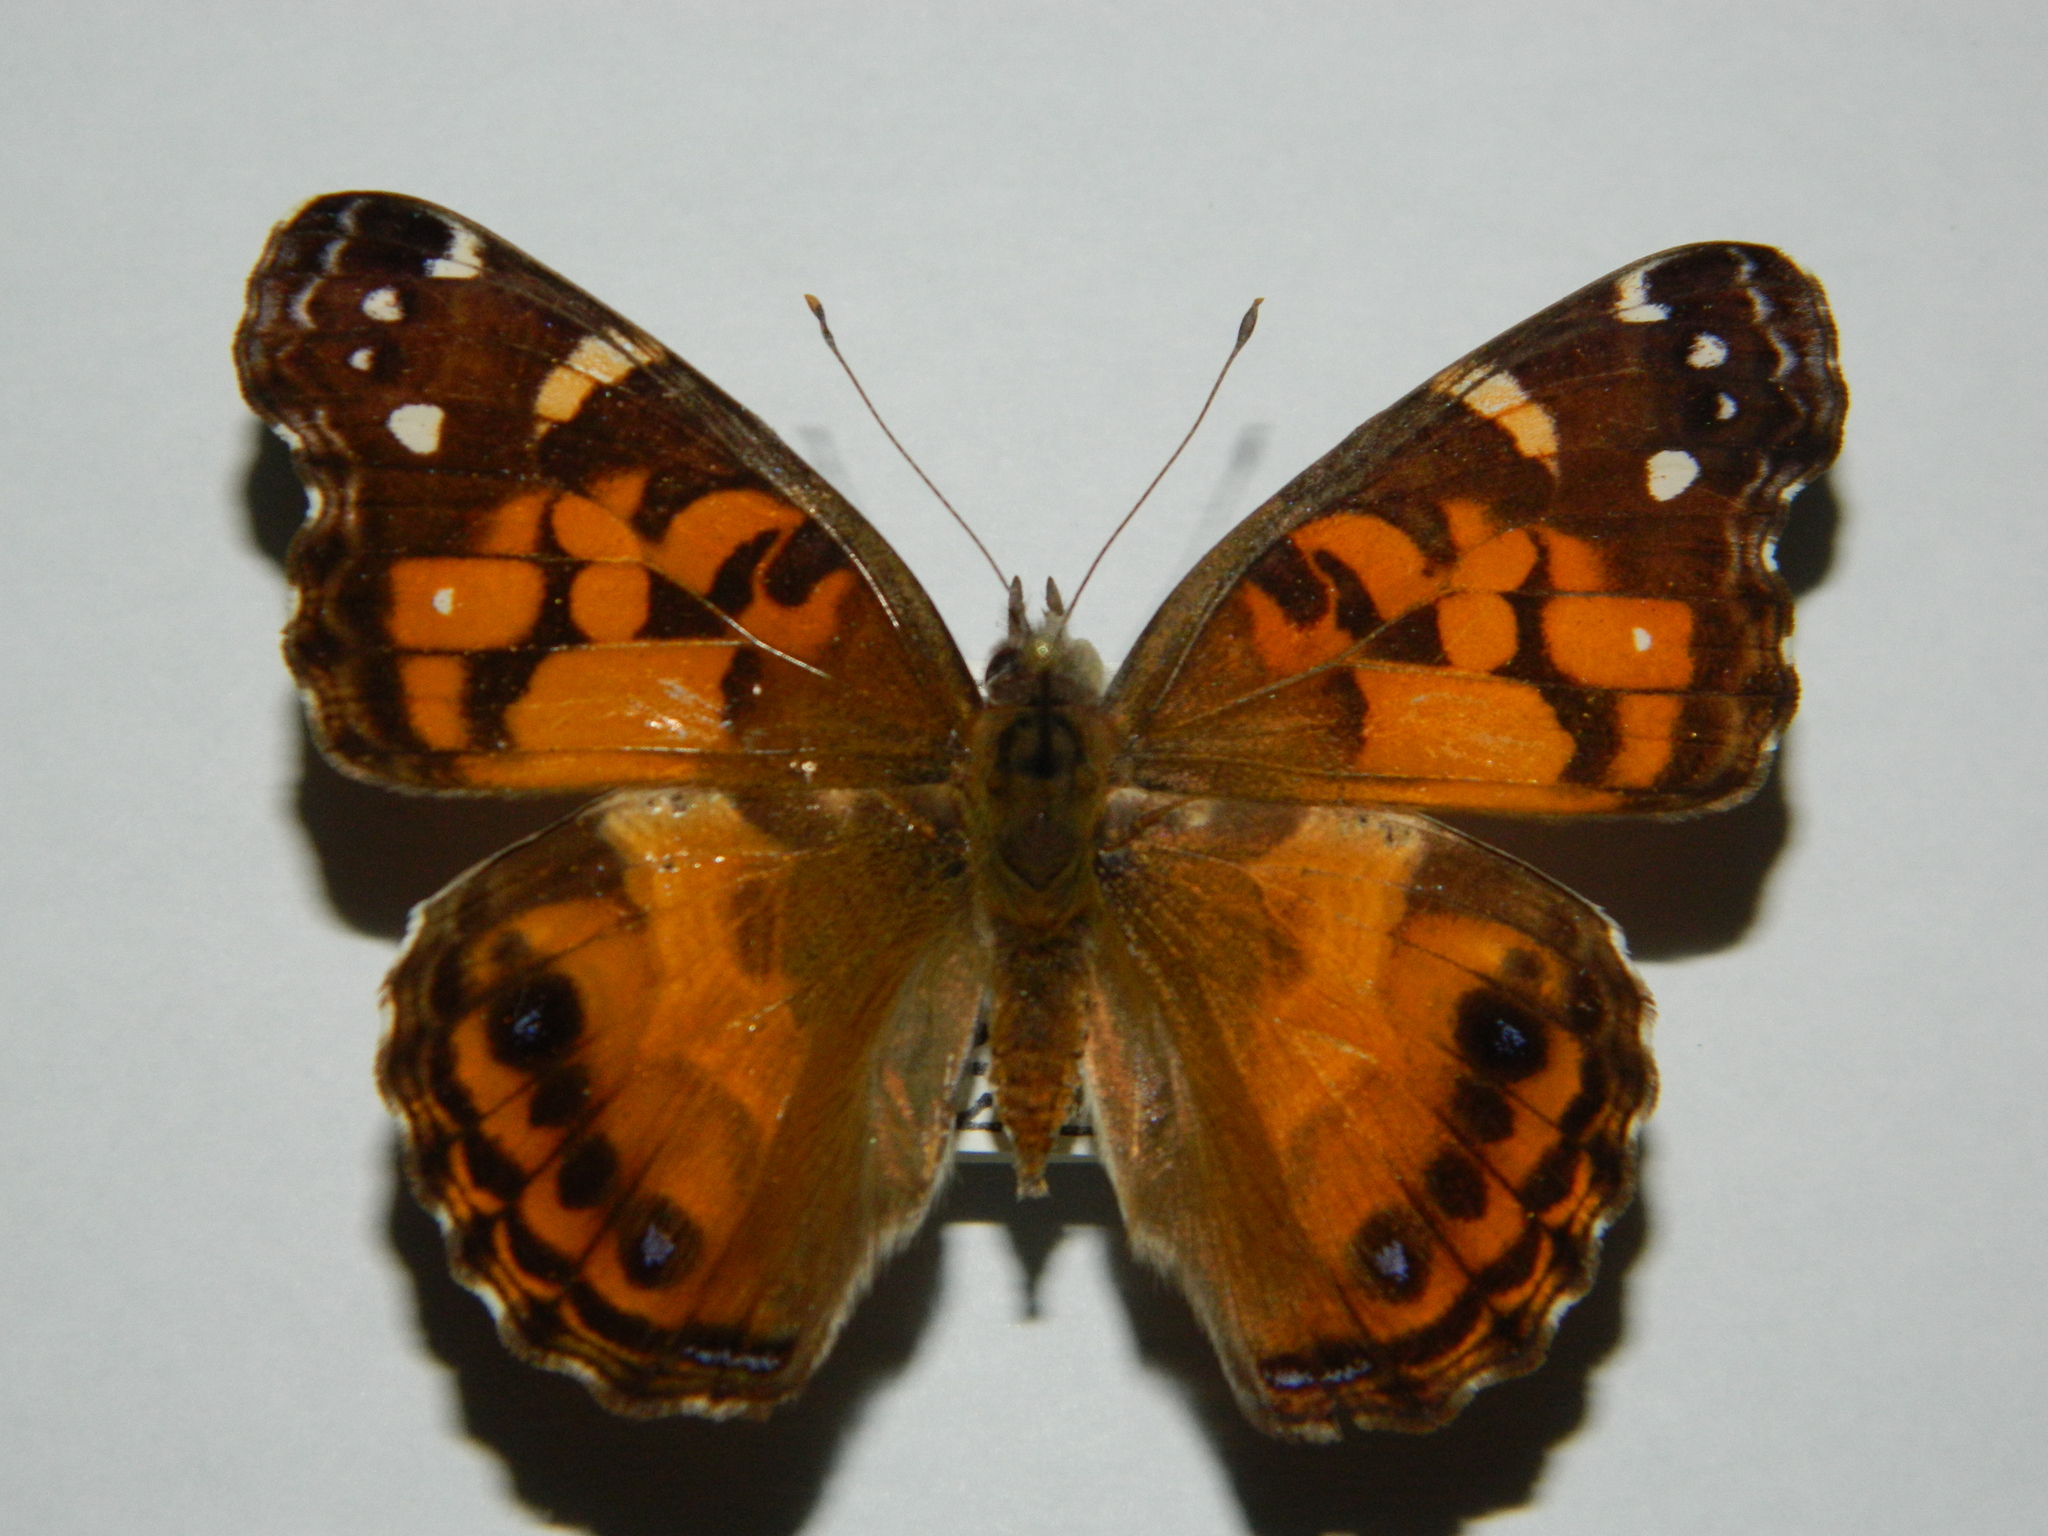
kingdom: Animalia
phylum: Arthropoda
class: Insecta
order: Lepidoptera
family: Nymphalidae
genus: Vanessa
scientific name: Vanessa virginiensis
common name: American lady
